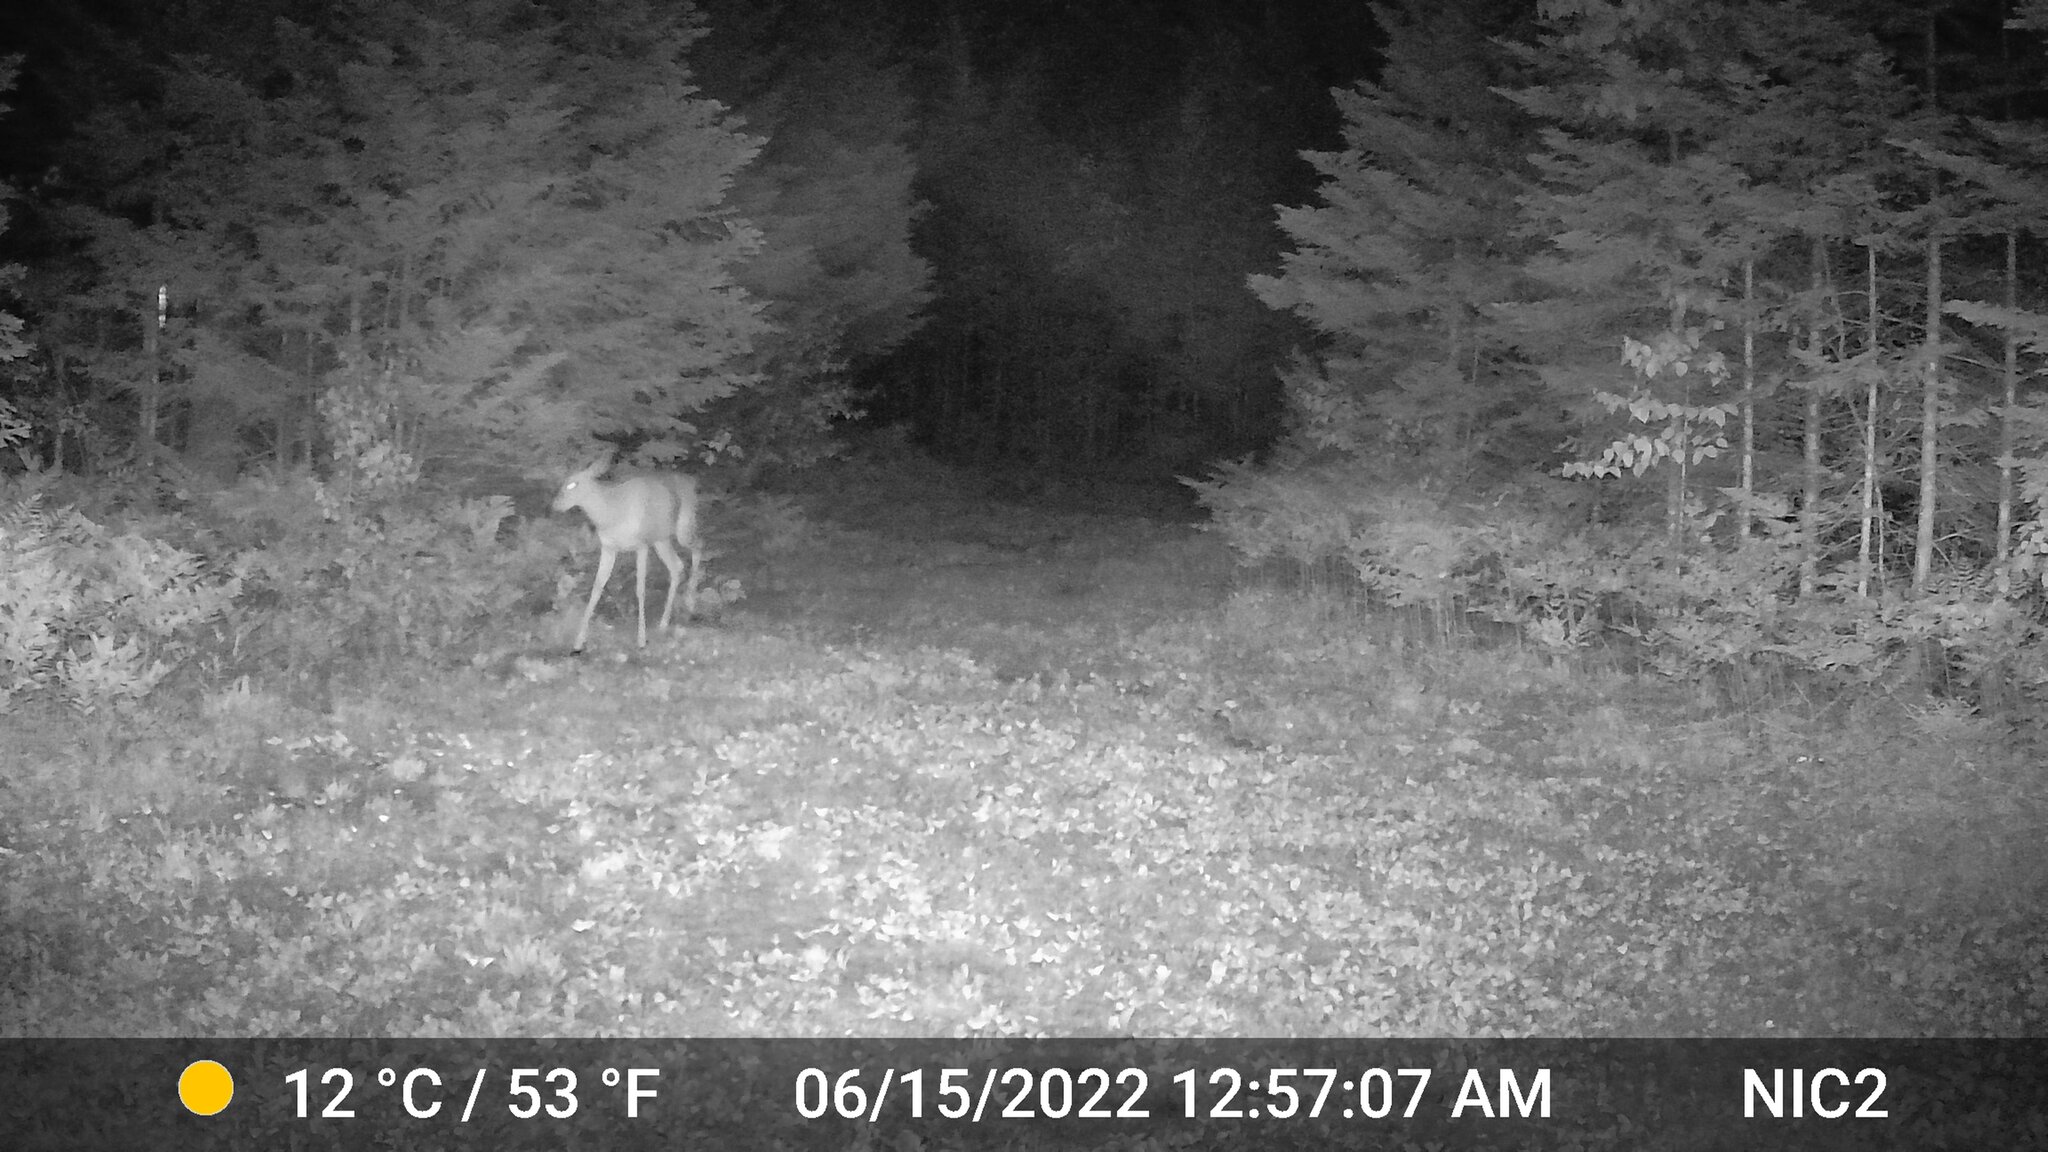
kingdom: Animalia
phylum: Chordata
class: Mammalia
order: Artiodactyla
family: Cervidae
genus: Odocoileus
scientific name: Odocoileus virginianus
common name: White-tailed deer
